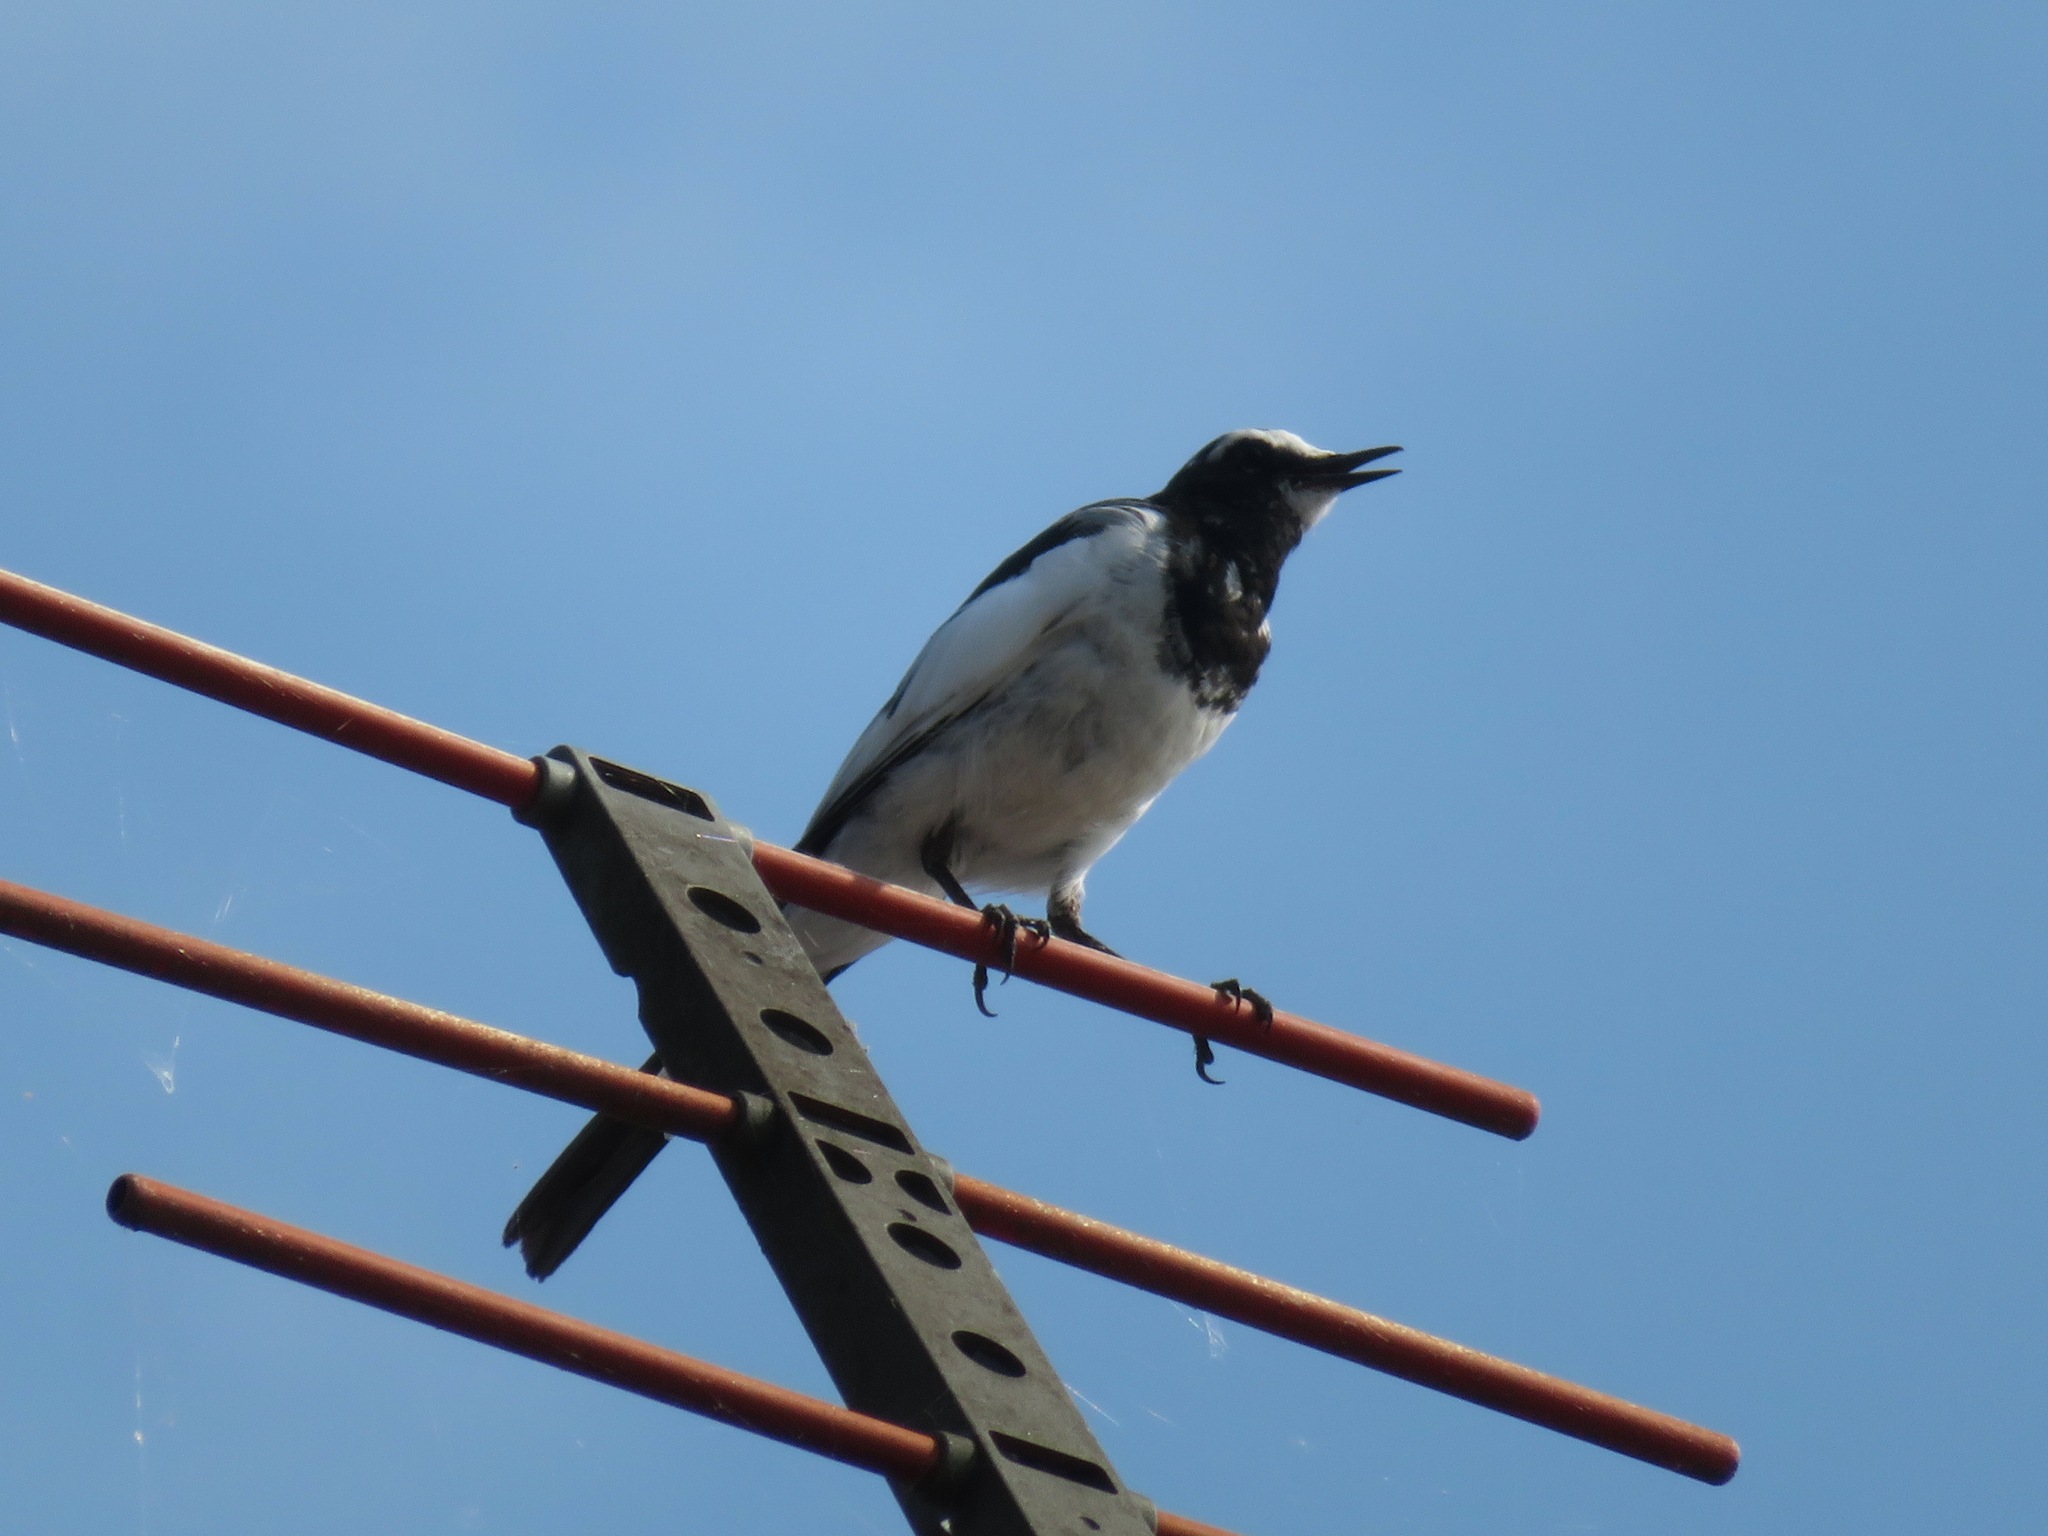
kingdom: Animalia
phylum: Chordata
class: Aves
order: Passeriformes
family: Motacillidae
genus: Motacilla
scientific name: Motacilla grandis
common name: Japanese wagtail
